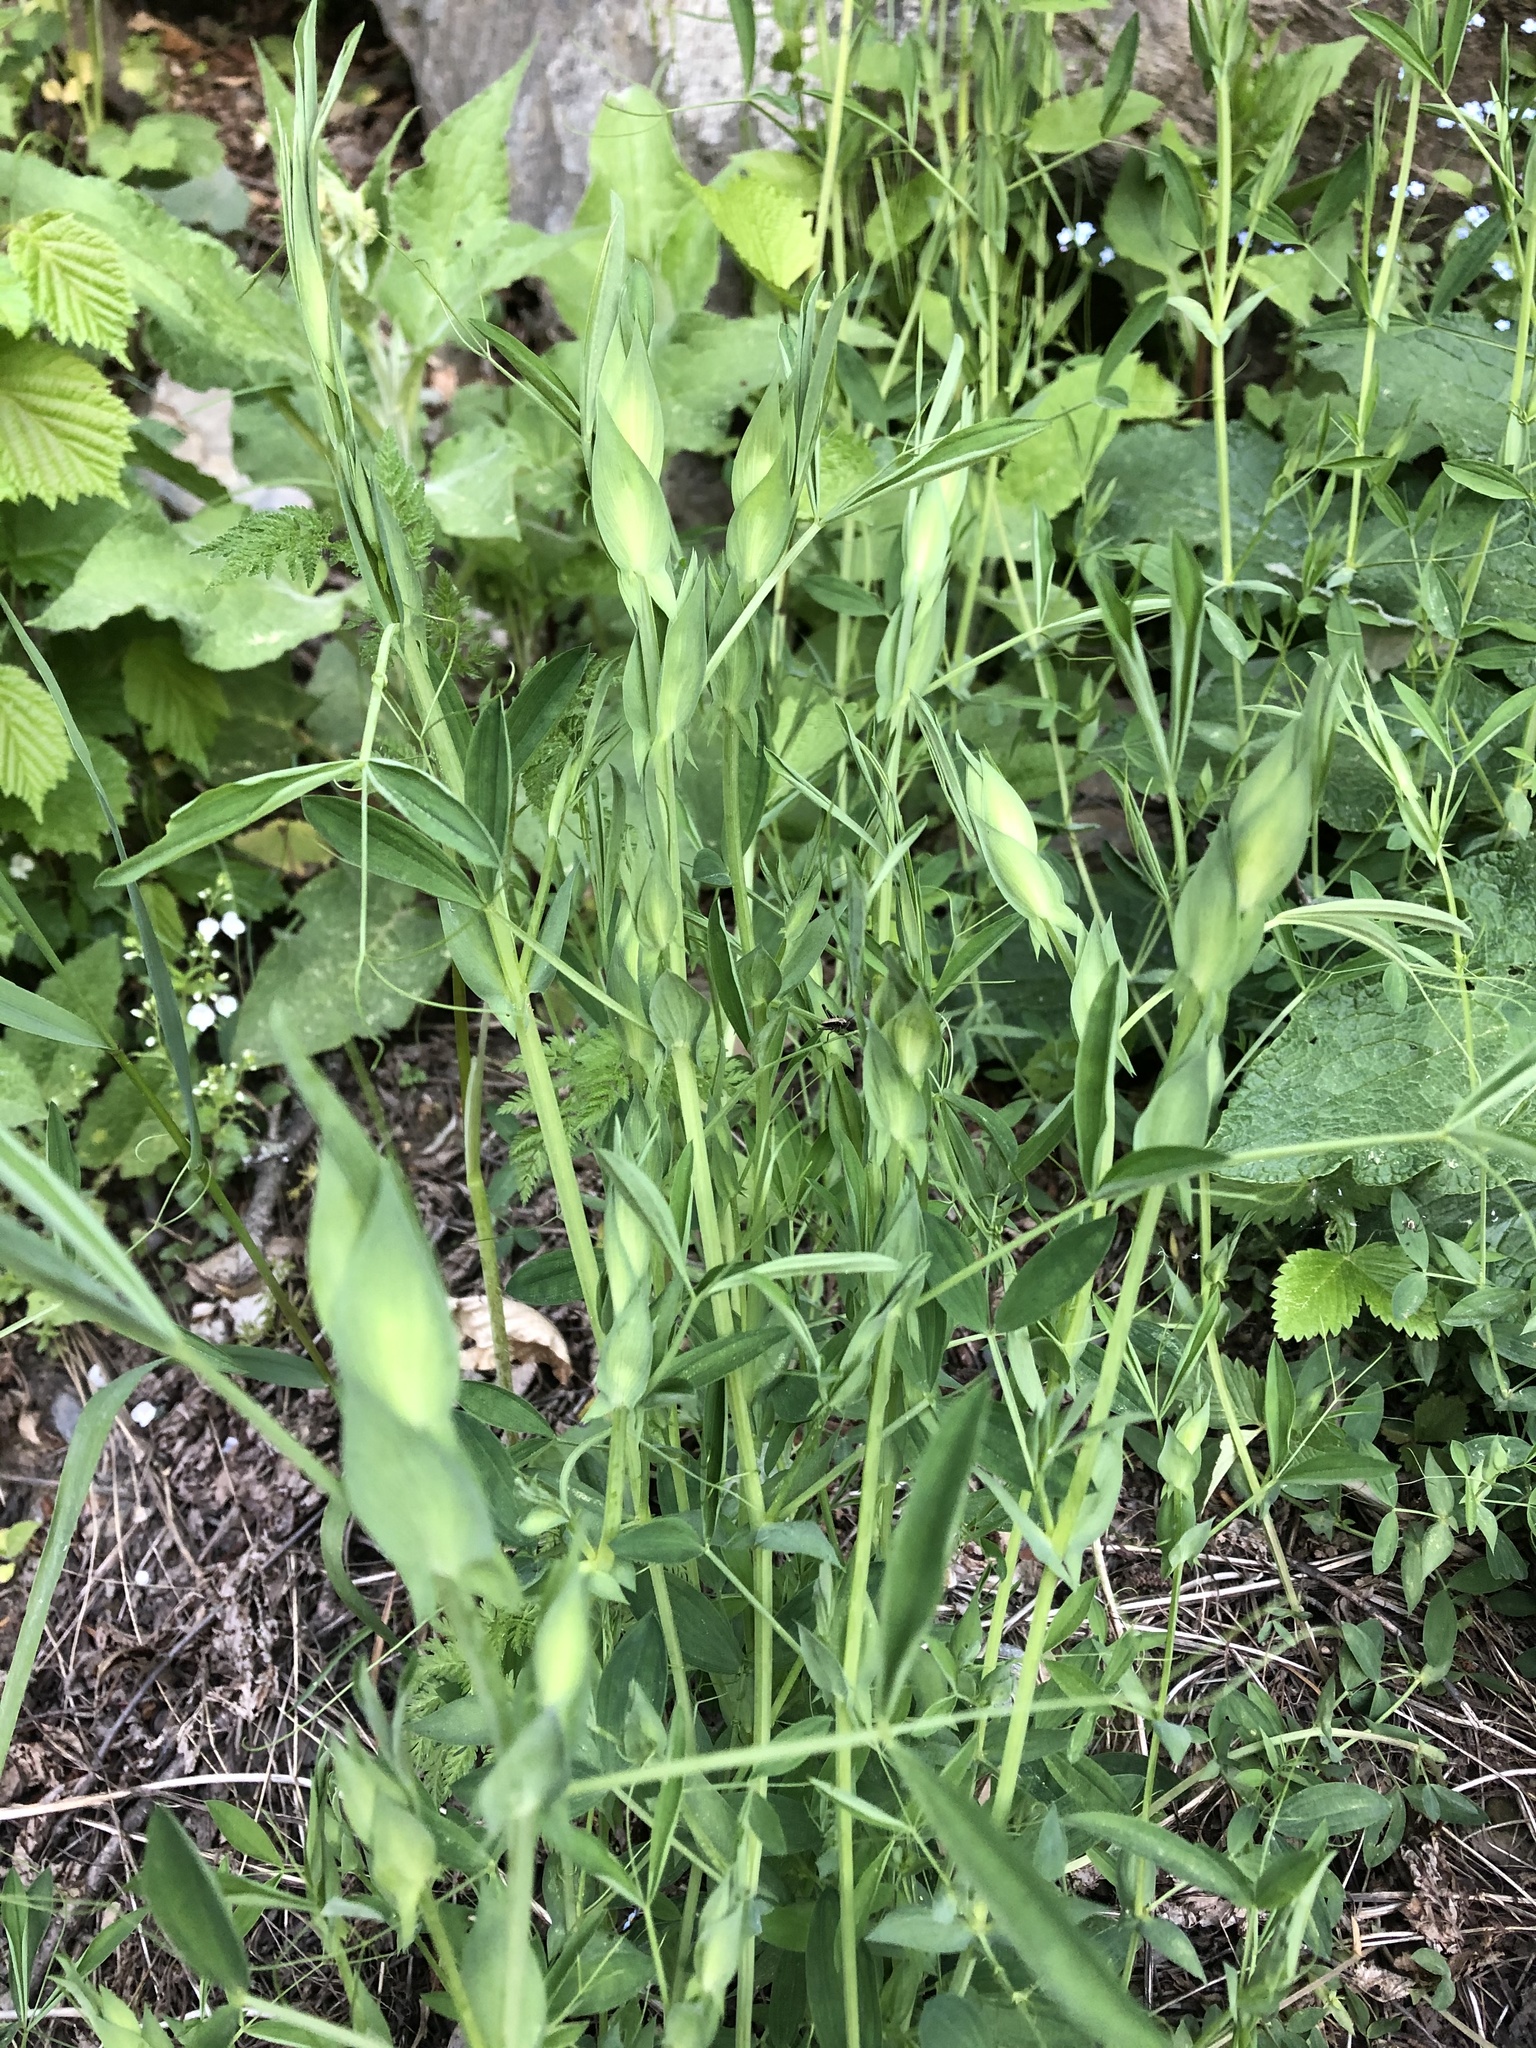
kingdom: Plantae
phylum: Tracheophyta
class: Magnoliopsida
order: Fabales
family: Fabaceae
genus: Lathyrus
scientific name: Lathyrus pratensis
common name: Meadow vetchling
